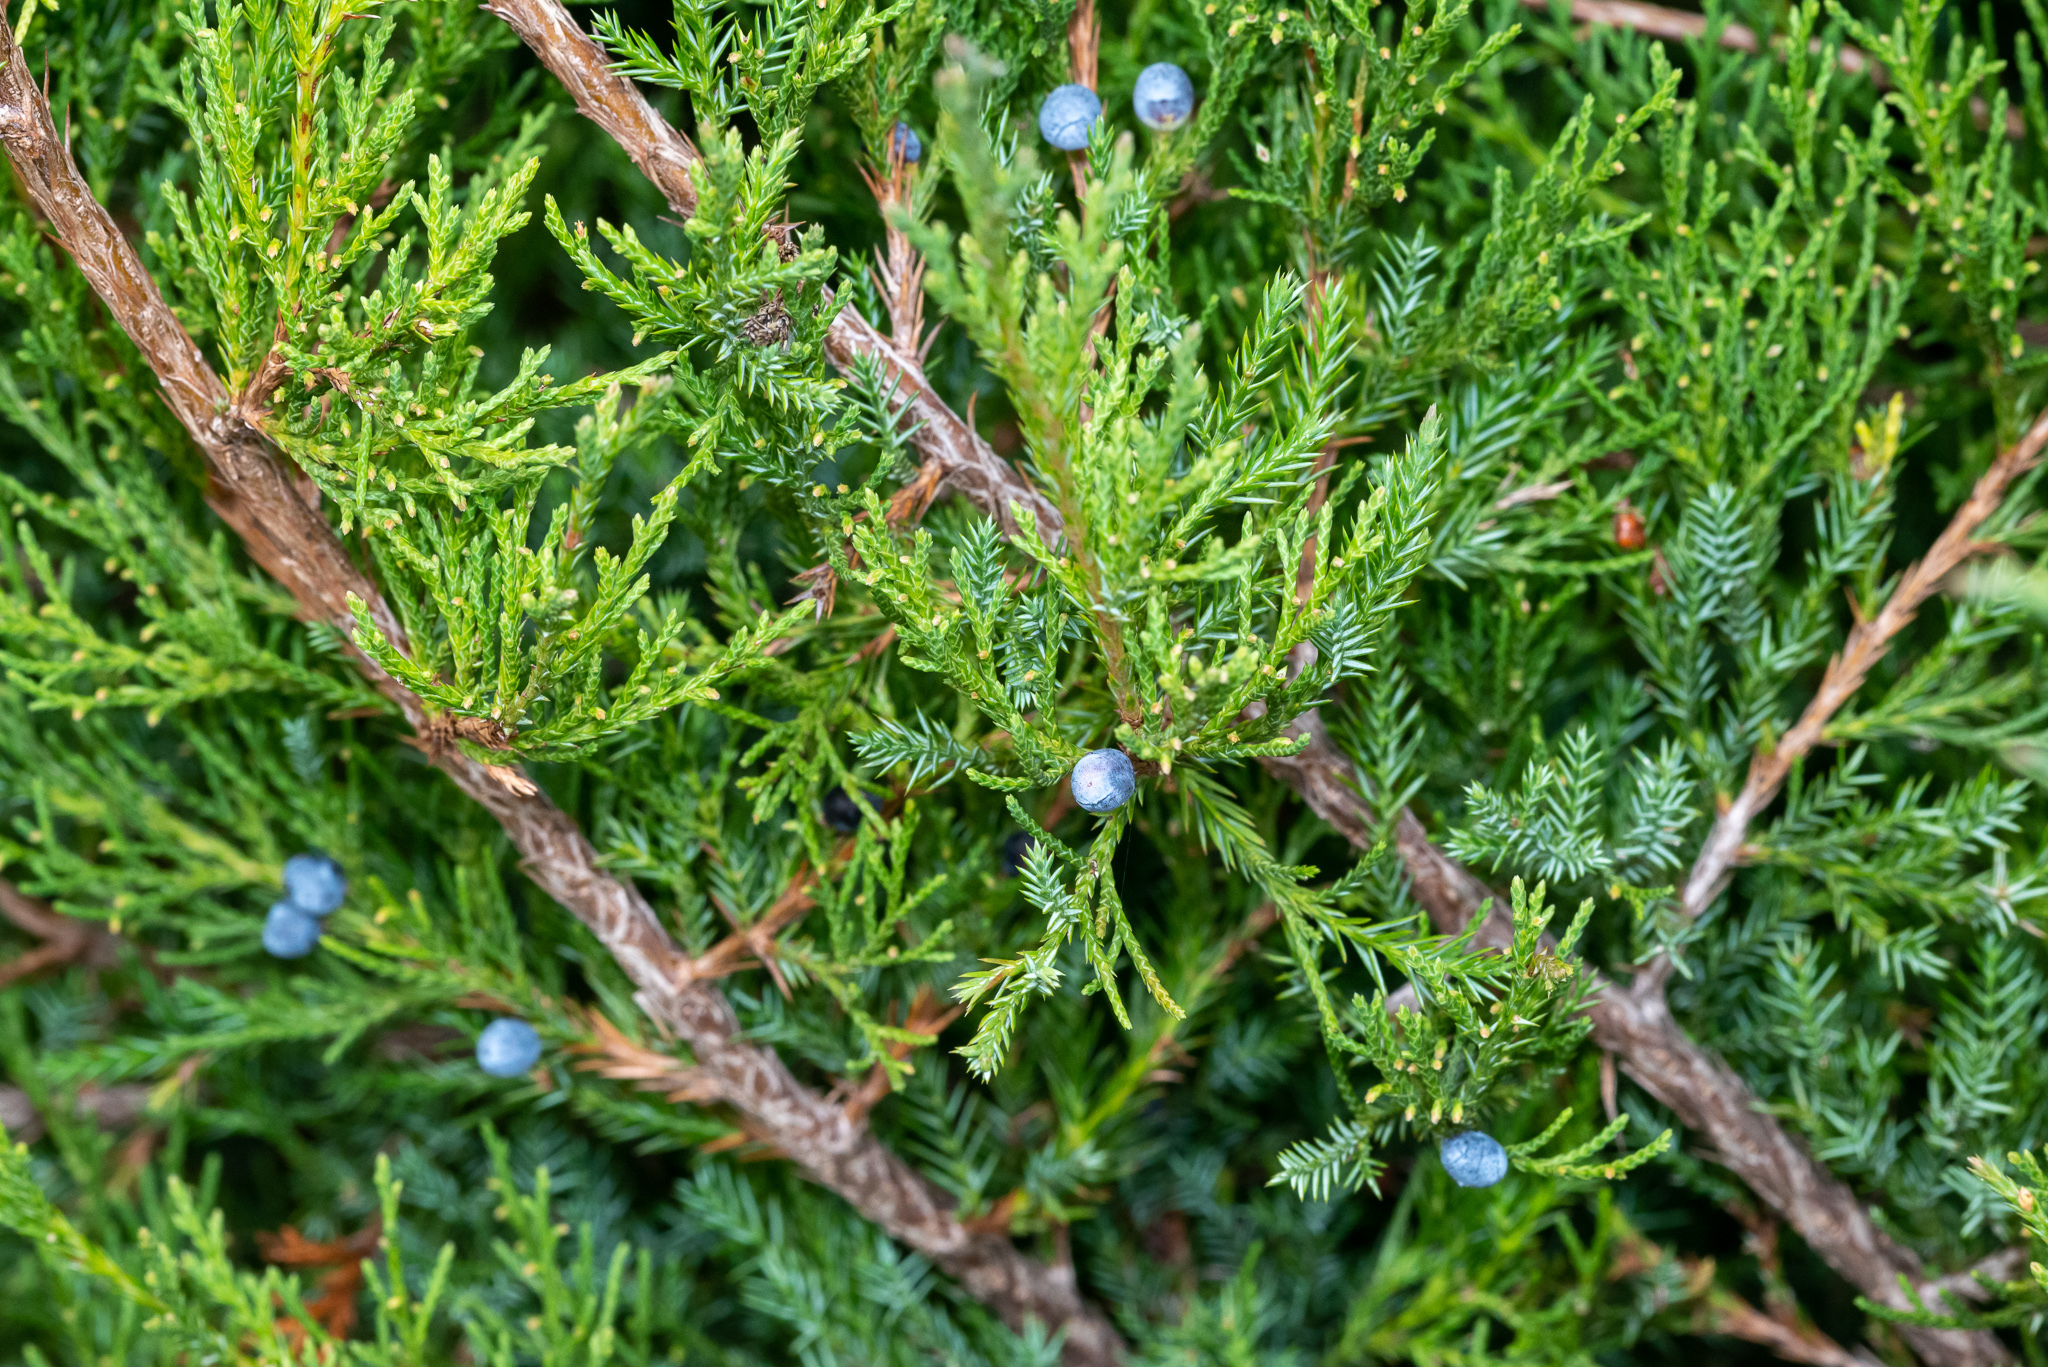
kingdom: Plantae
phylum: Tracheophyta
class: Pinopsida
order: Pinales
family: Cupressaceae
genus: Juniperus
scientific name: Juniperus virginiana
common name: Red juniper
